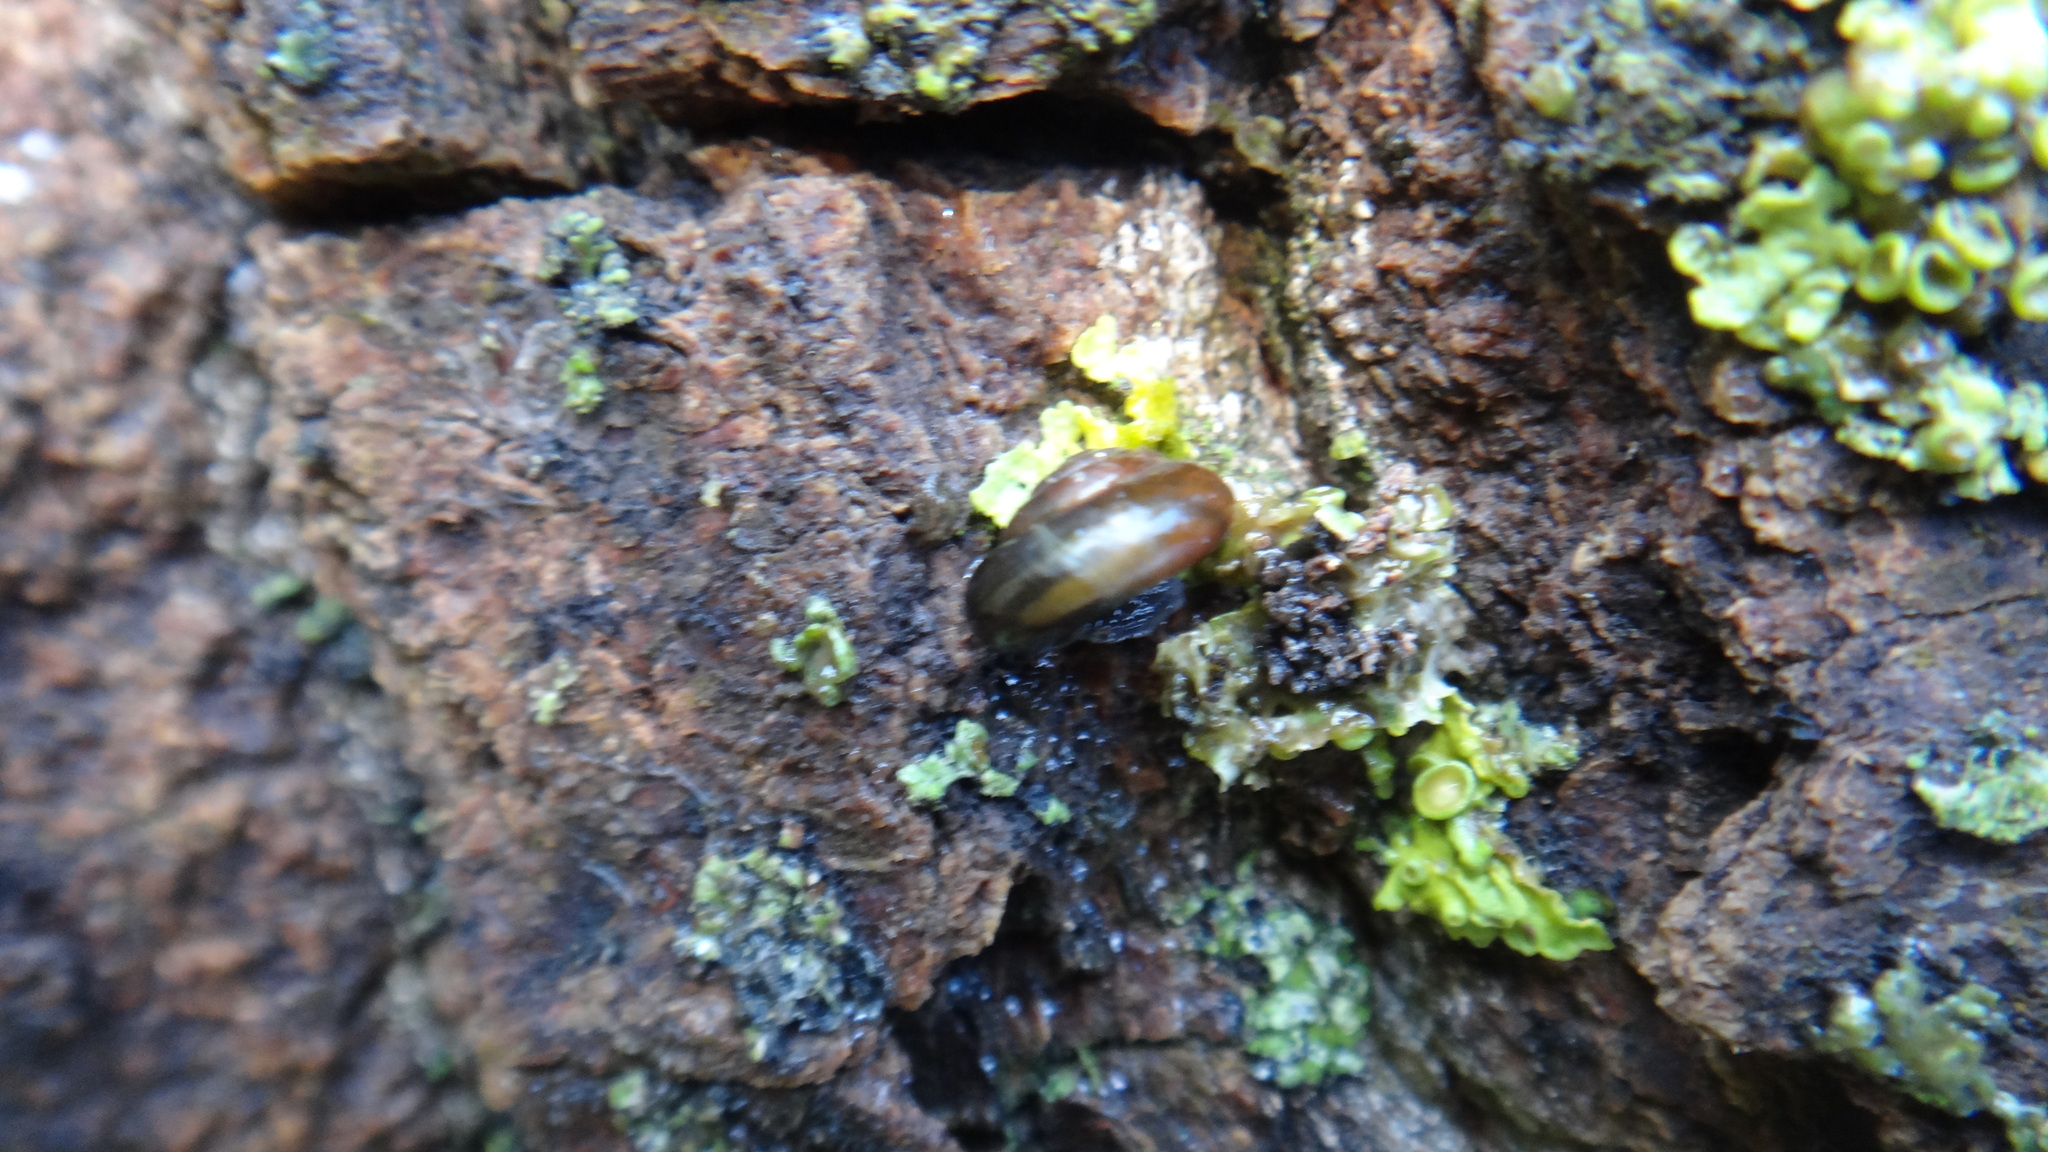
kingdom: Animalia
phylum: Mollusca
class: Gastropoda
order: Stylommatophora
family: Gastrodontidae
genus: Aegopinella
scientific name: Aegopinella minor
